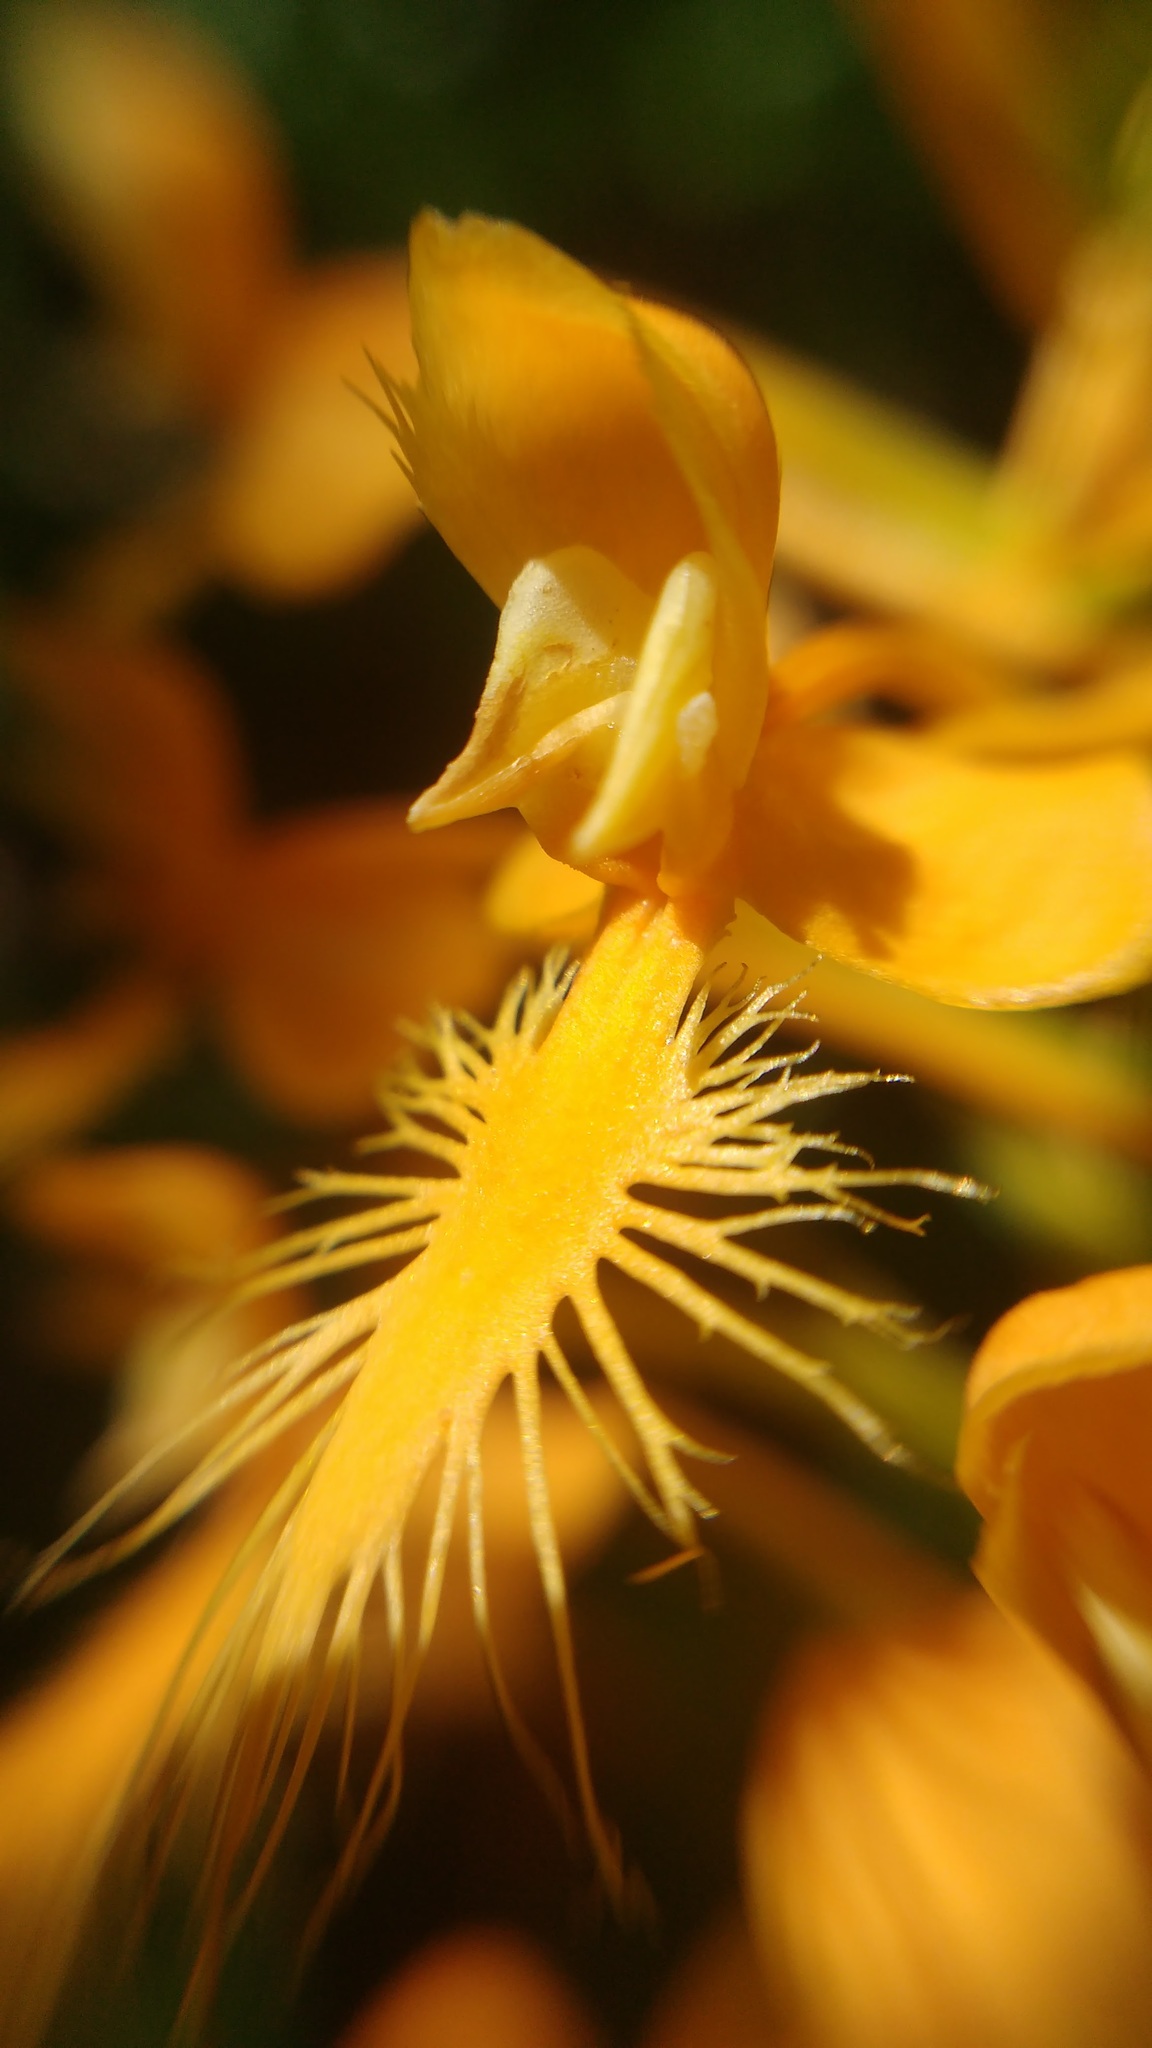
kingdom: Plantae
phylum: Tracheophyta
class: Liliopsida
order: Asparagales
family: Orchidaceae
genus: Platanthera
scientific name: Platanthera ciliaris
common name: Yellow fringed orchid
